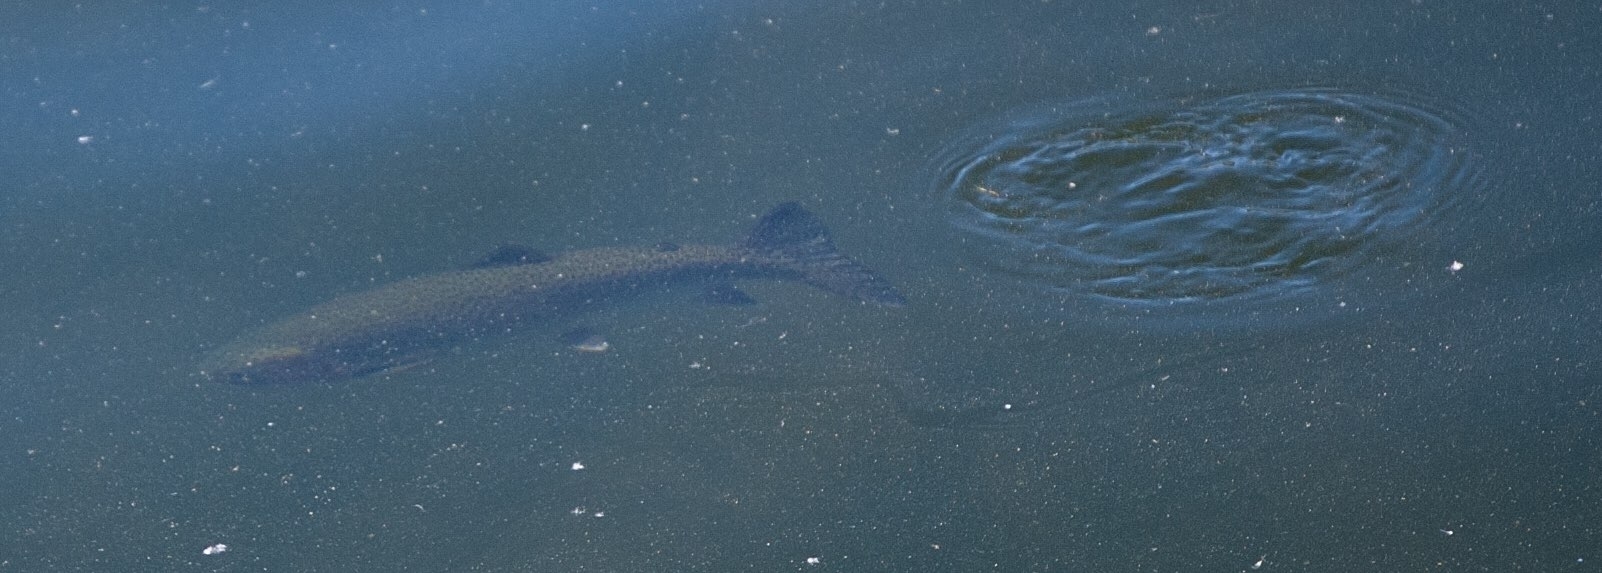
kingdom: Animalia
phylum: Chordata
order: Salmoniformes
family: Salmonidae
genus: Oncorhynchus
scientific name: Oncorhynchus mykiss
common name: Rainbow trout
